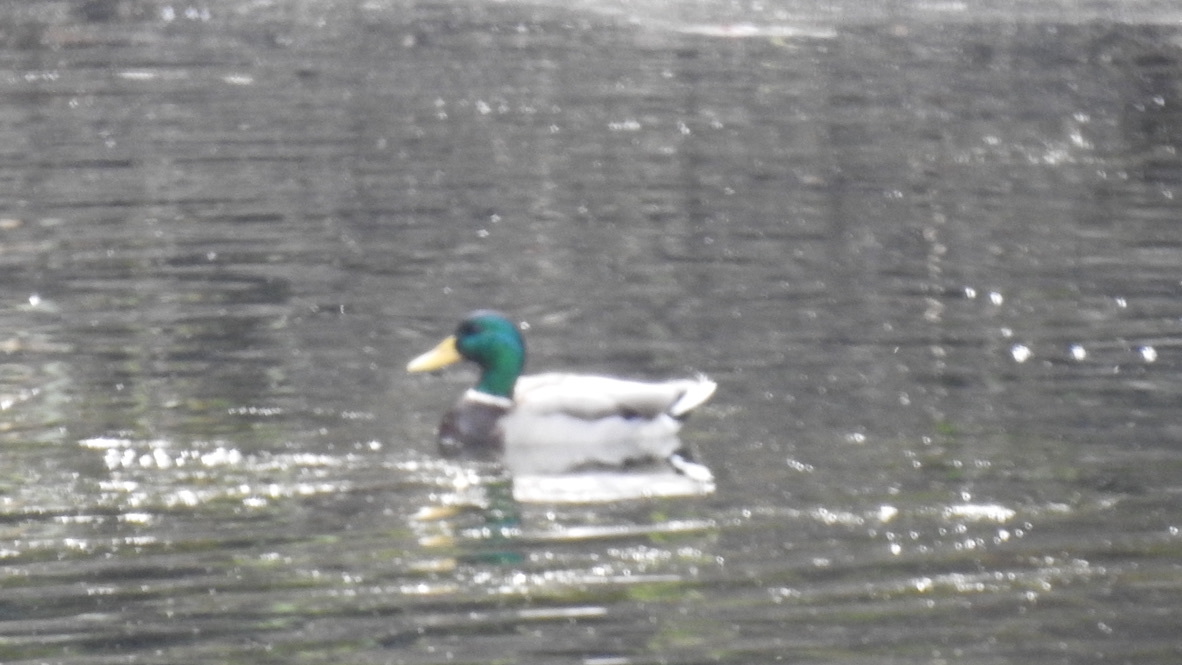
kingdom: Animalia
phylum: Chordata
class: Aves
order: Anseriformes
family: Anatidae
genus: Anas
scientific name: Anas platyrhynchos
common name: Mallard
